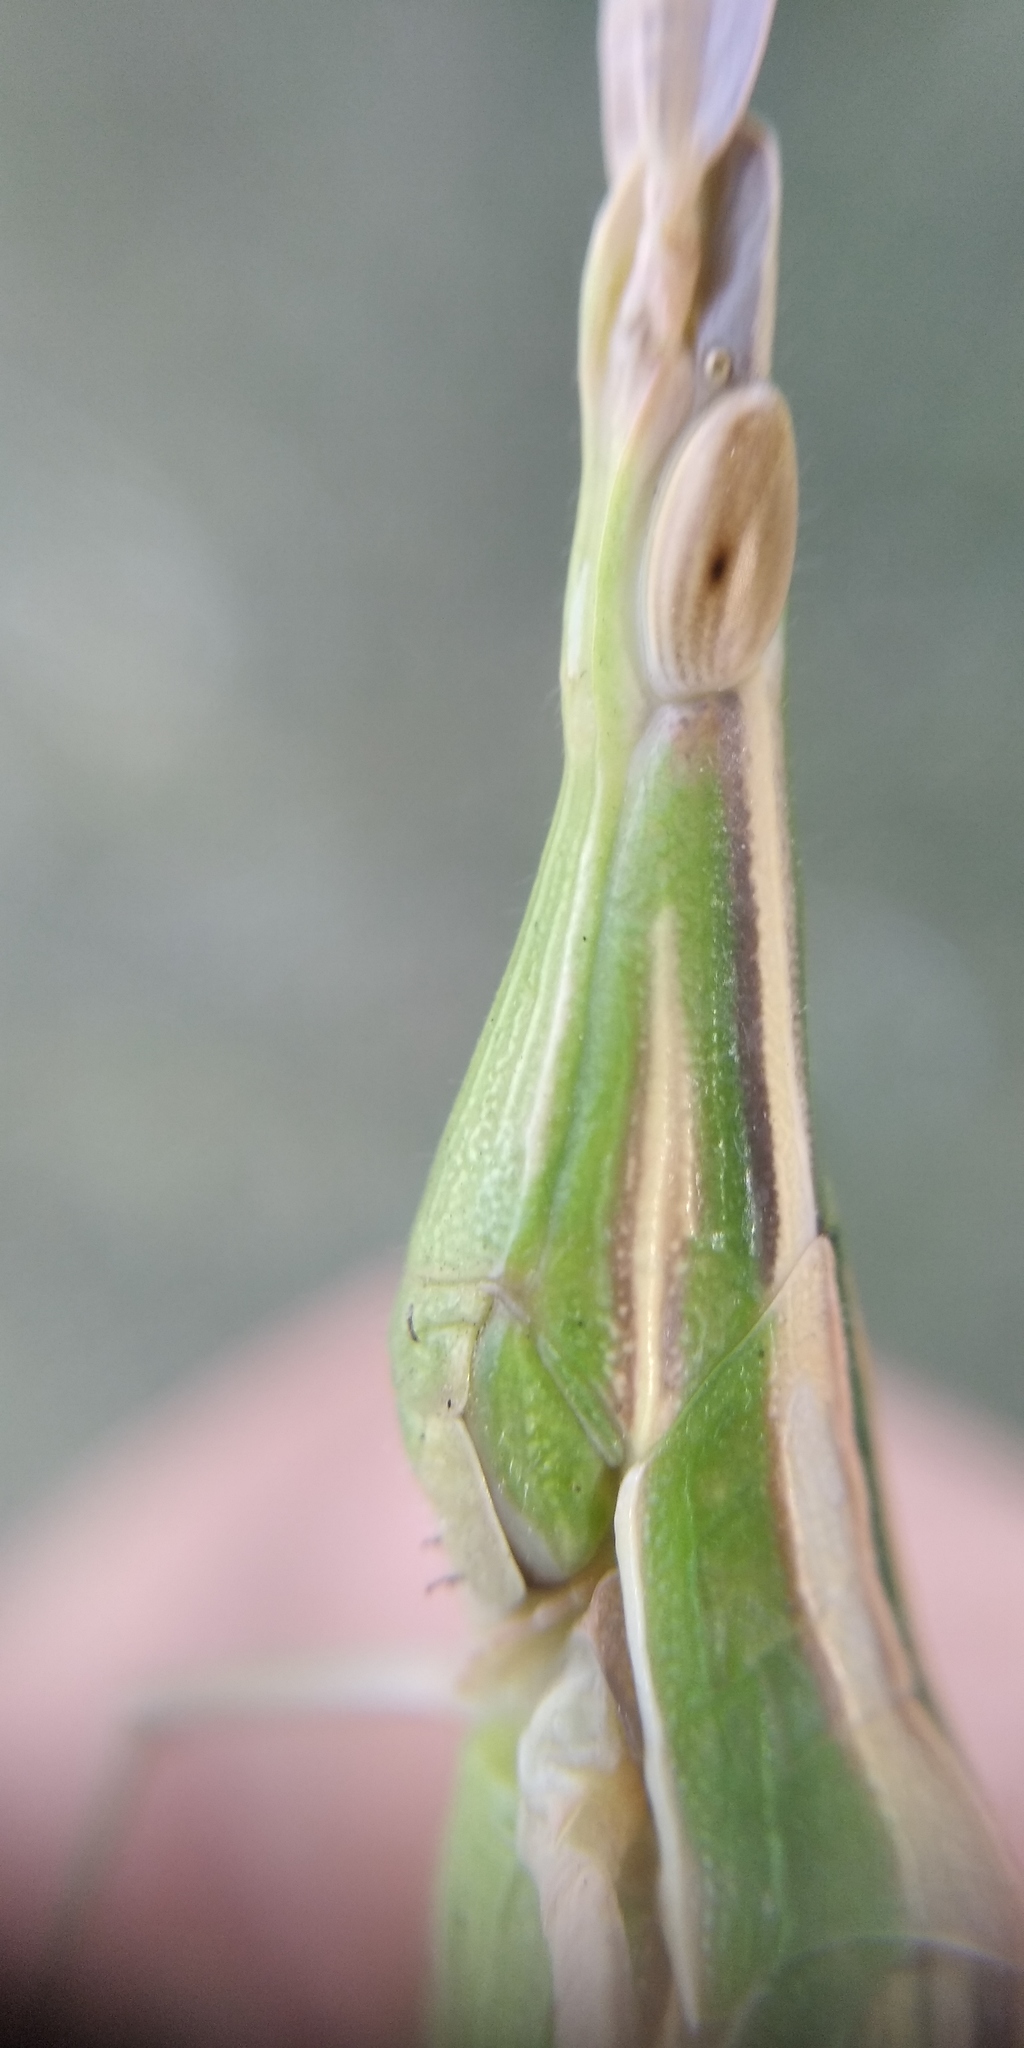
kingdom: Animalia
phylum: Arthropoda
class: Insecta
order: Orthoptera
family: Acrididae
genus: Acrida
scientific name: Acrida ungarica
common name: Common cone-headed grasshopper
